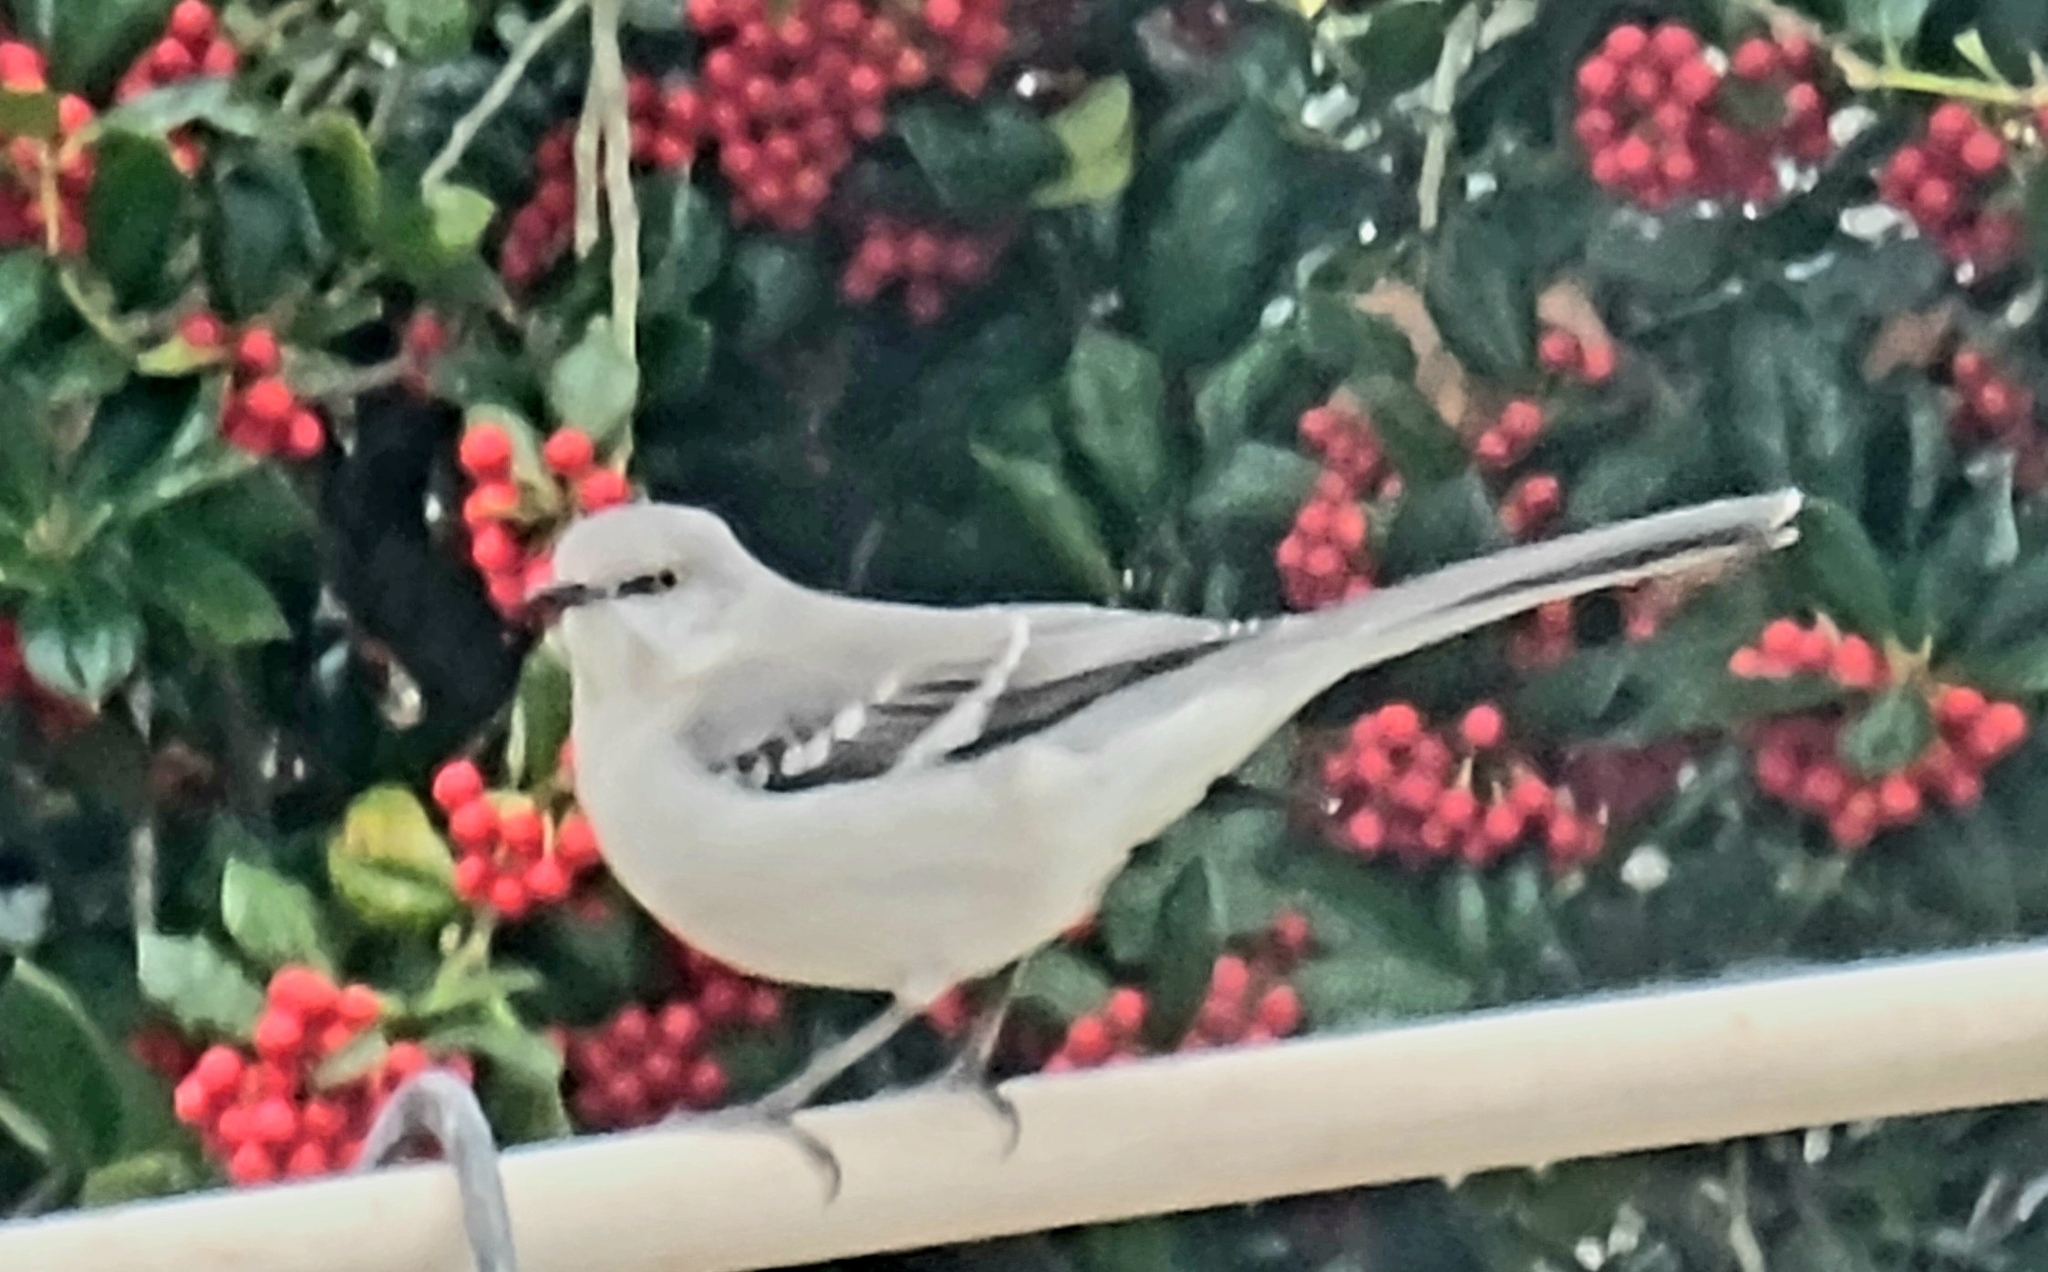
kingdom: Animalia
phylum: Chordata
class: Aves
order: Passeriformes
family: Mimidae
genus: Mimus
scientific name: Mimus polyglottos
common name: Northern mockingbird
